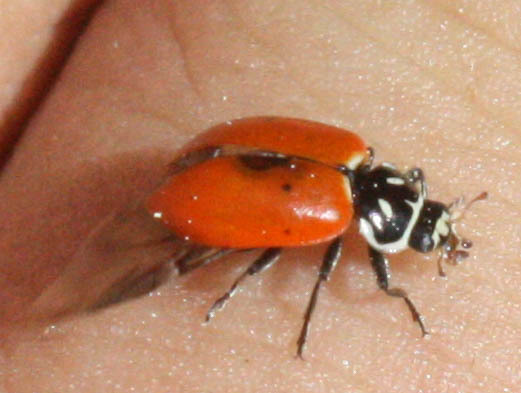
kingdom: Animalia
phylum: Arthropoda
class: Insecta
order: Coleoptera
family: Coccinellidae
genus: Hippodamia
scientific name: Hippodamia convergens
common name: Convergent lady beetle
